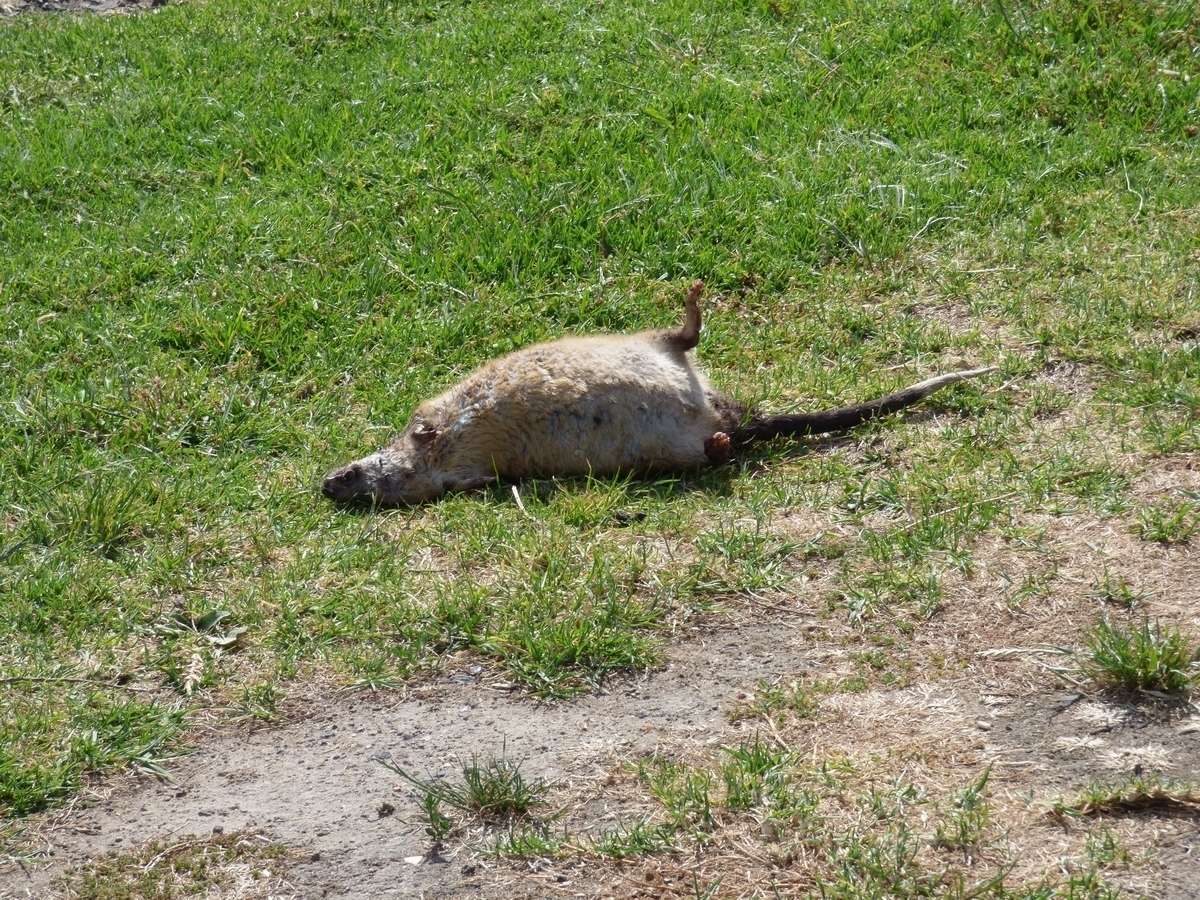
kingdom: Animalia
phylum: Chordata
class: Mammalia
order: Rodentia
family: Muridae
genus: Hydromys
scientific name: Hydromys chrysogaster
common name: Common water rat
